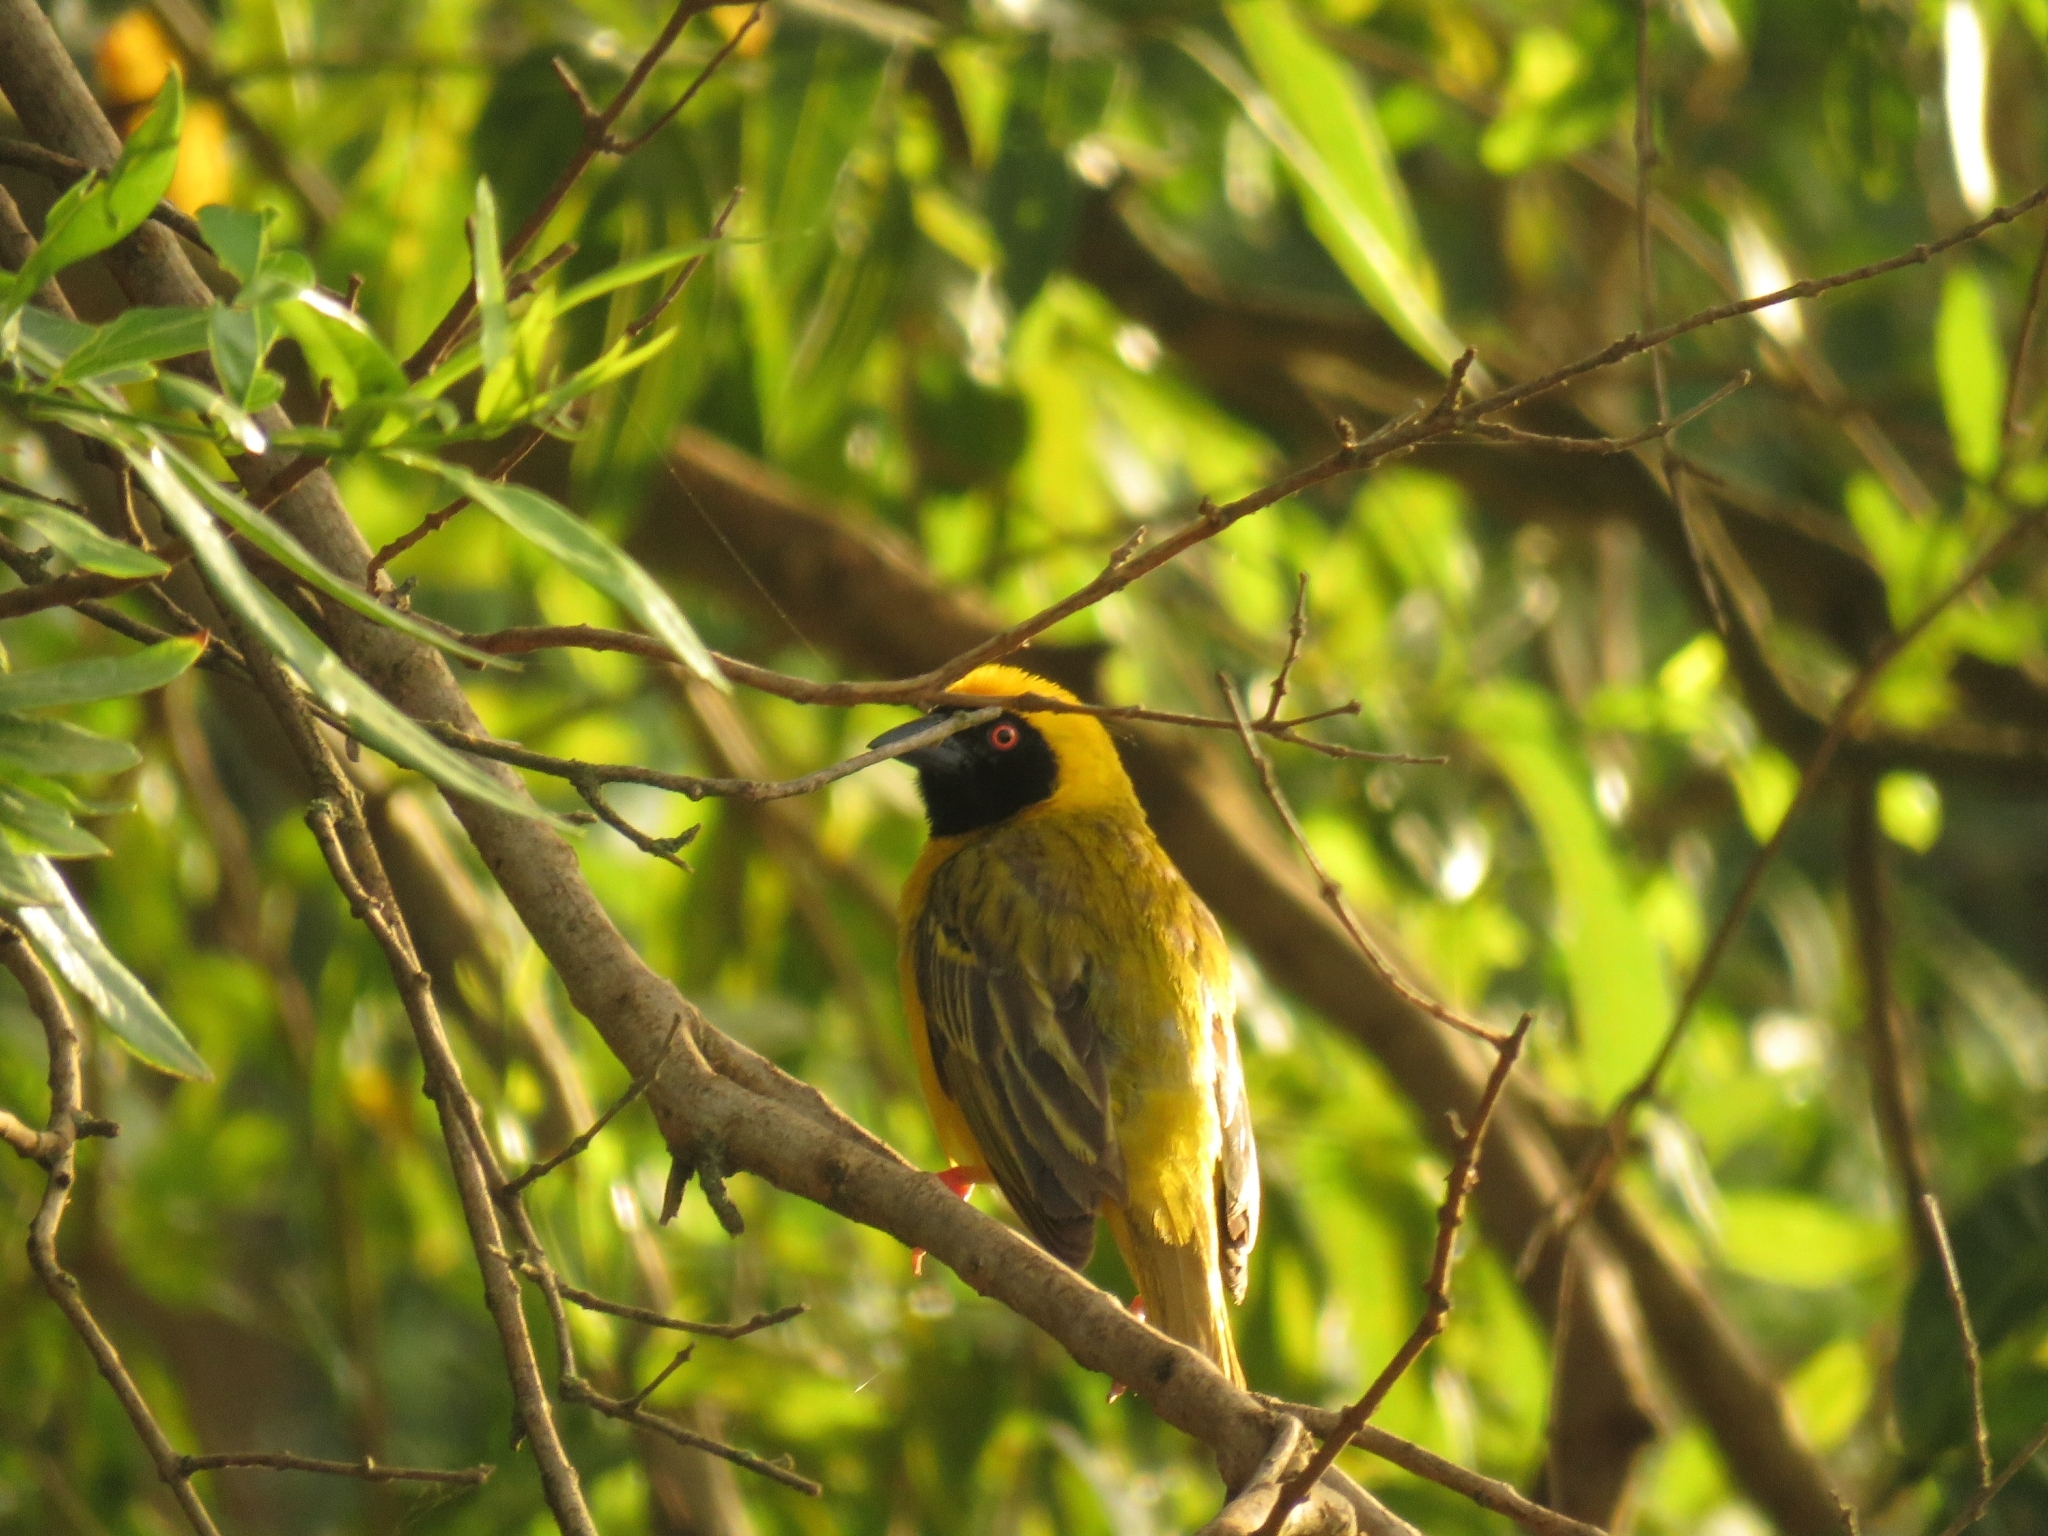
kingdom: Animalia
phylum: Chordata
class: Aves
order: Passeriformes
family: Ploceidae
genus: Ploceus
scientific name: Ploceus velatus
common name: Southern masked weaver
